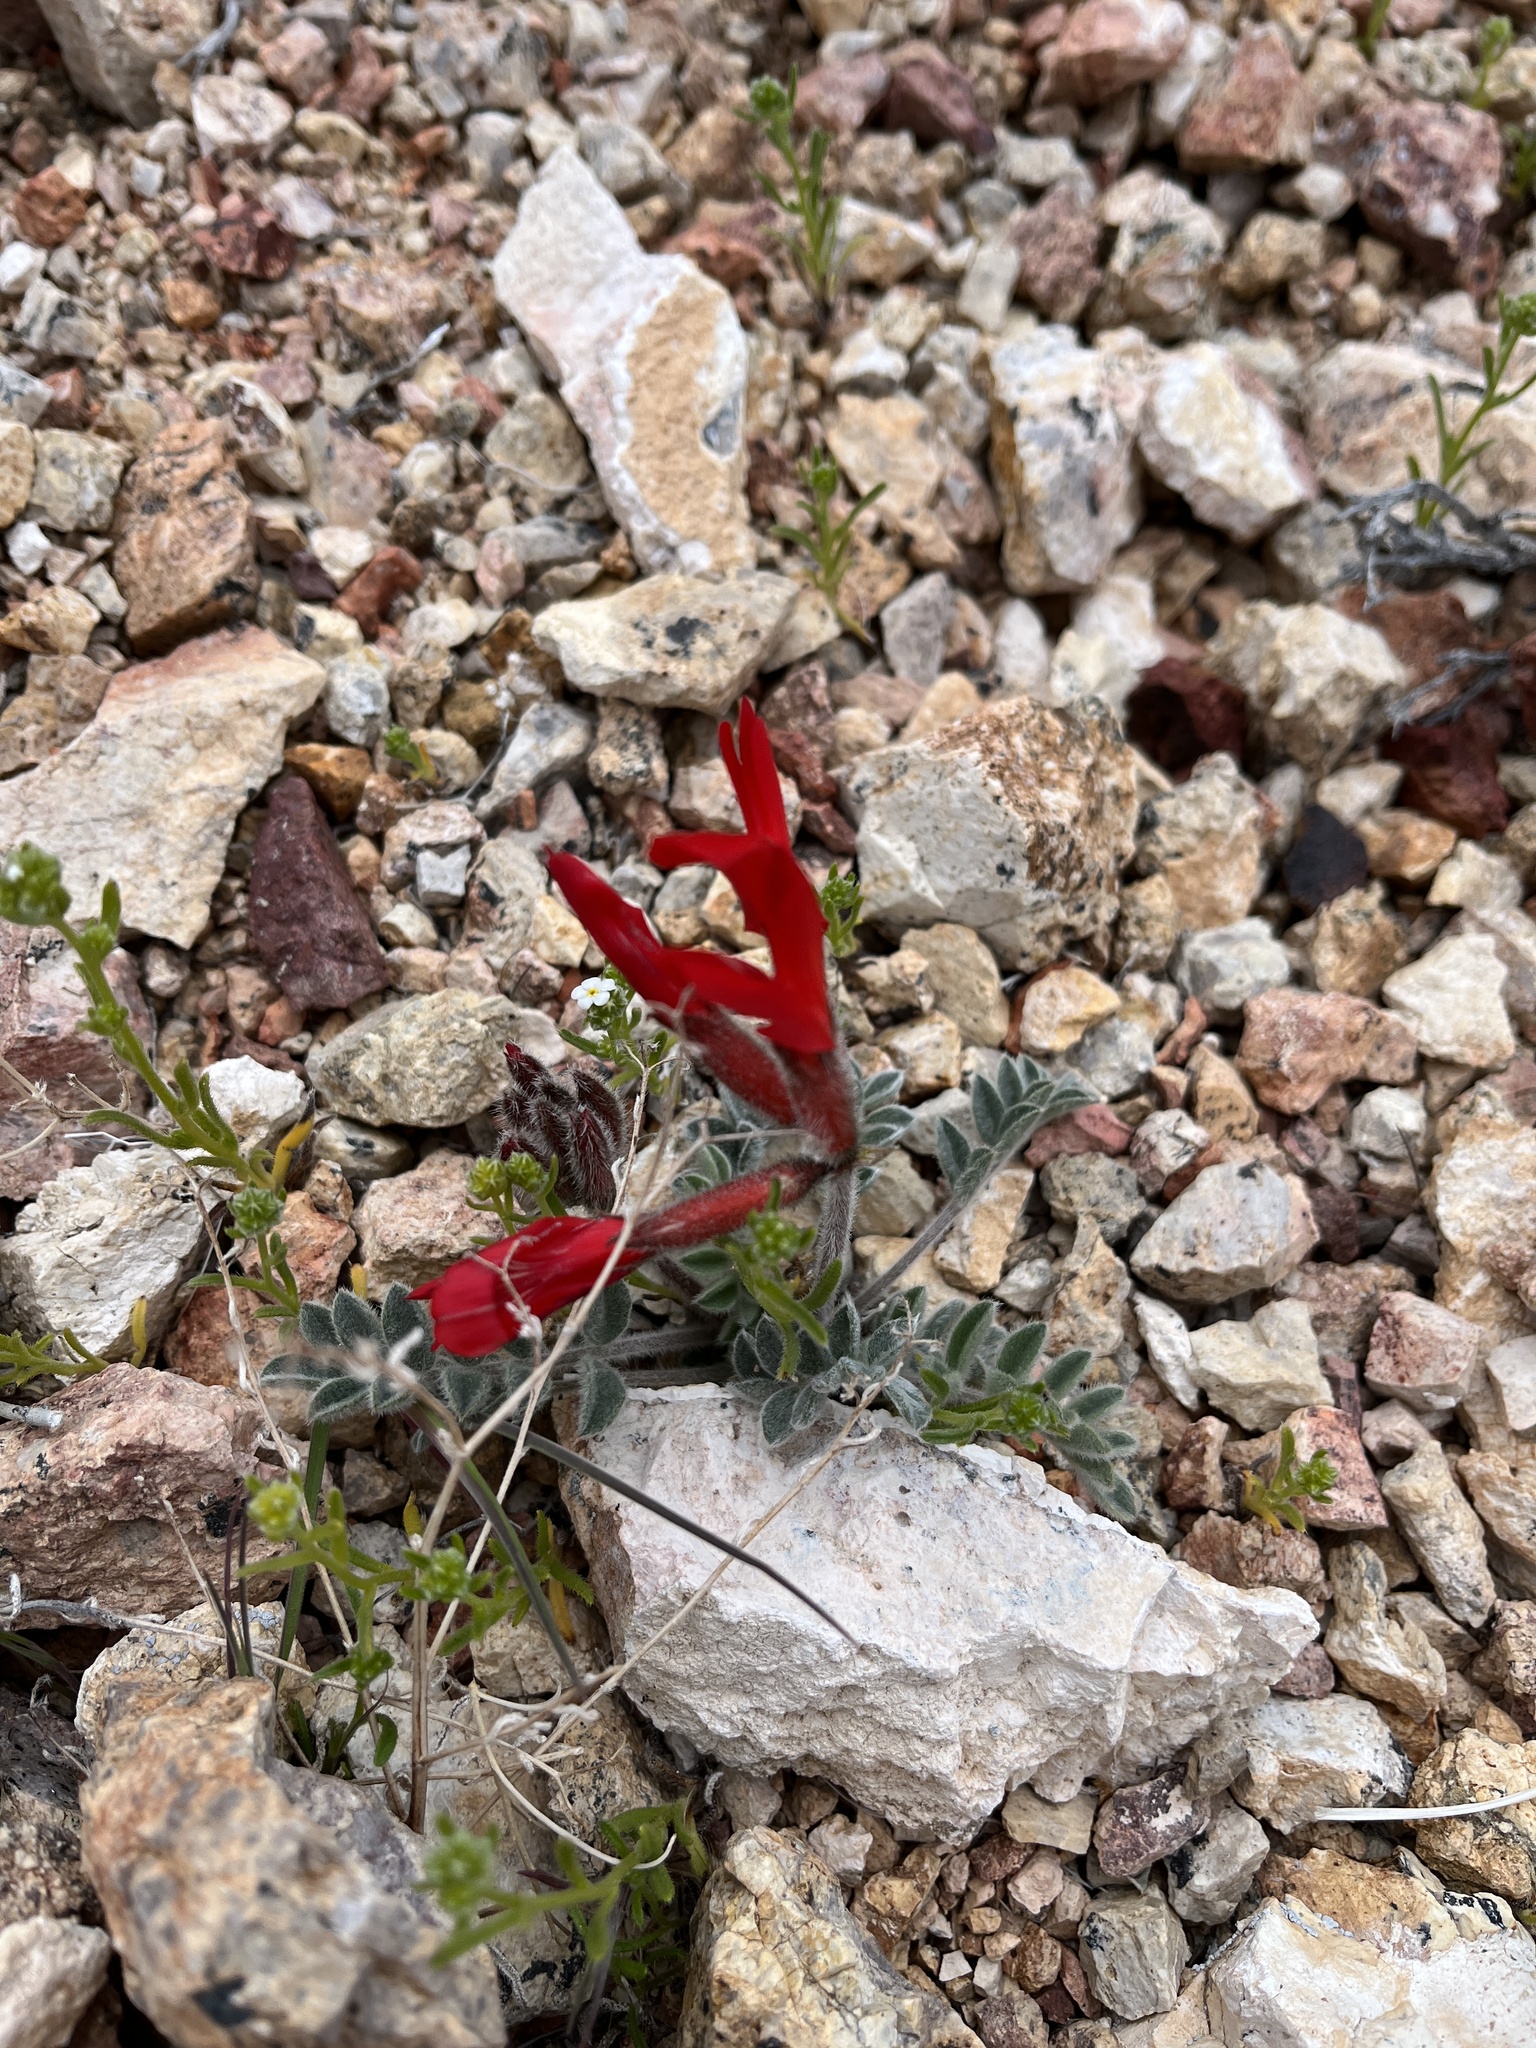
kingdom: Plantae
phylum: Tracheophyta
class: Magnoliopsida
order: Fabales
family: Fabaceae
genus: Astragalus
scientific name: Astragalus coccineus
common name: Scarlet milk-vetch
